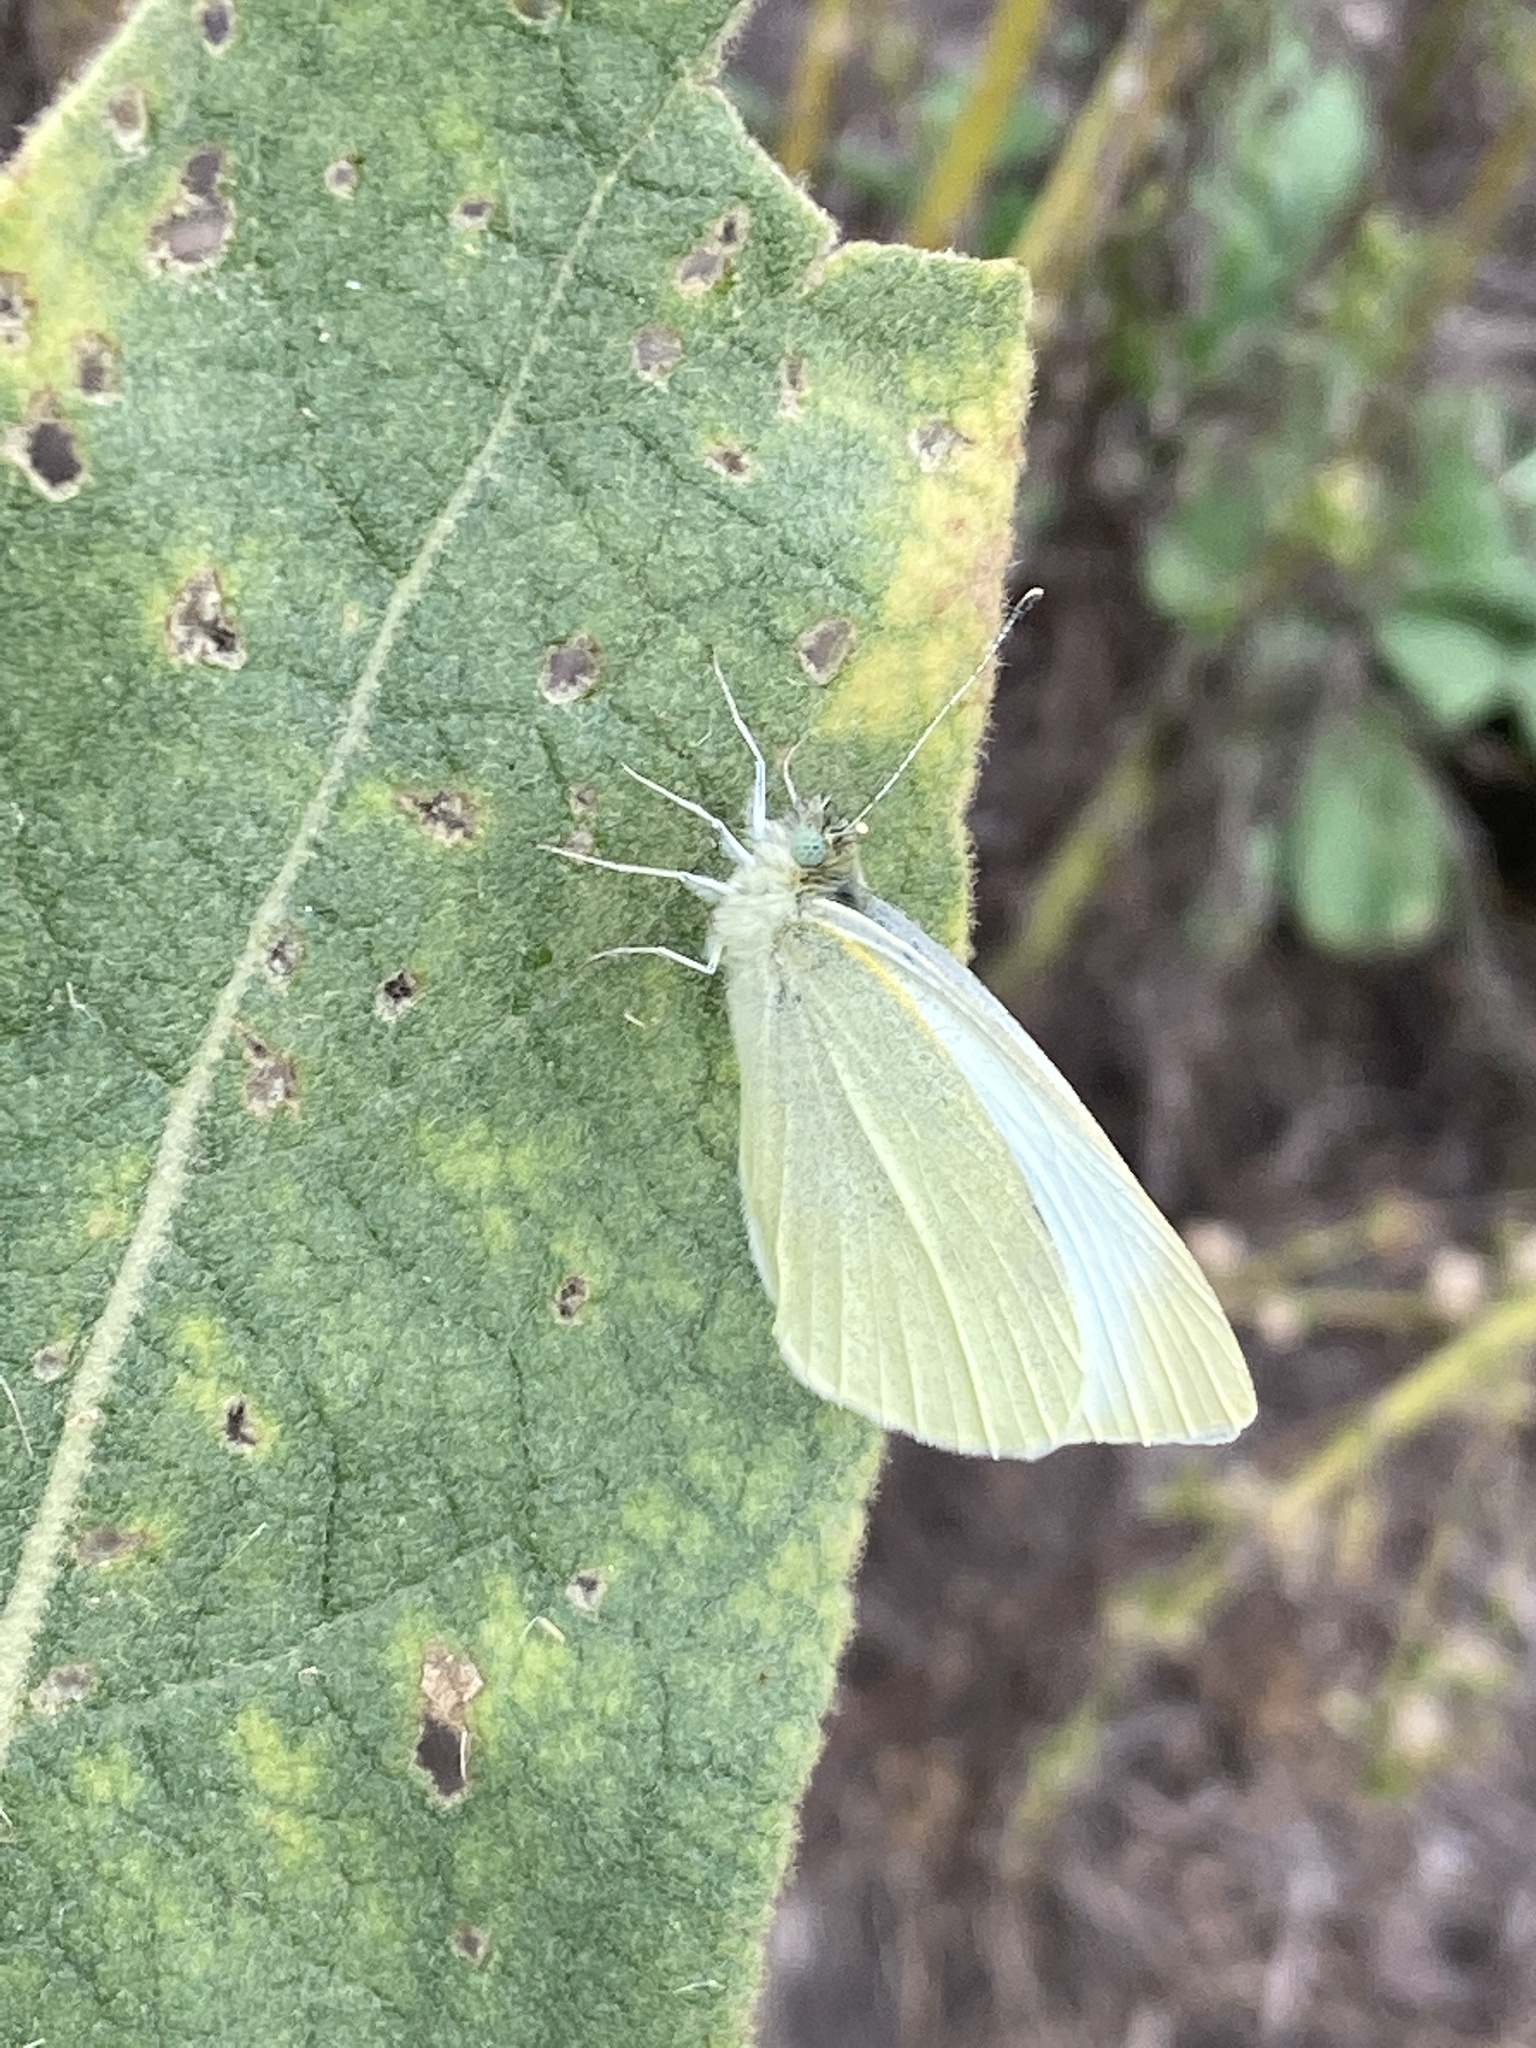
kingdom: Animalia
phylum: Arthropoda
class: Insecta
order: Lepidoptera
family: Pieridae
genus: Pieris
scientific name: Pieris rapae
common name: Small white
